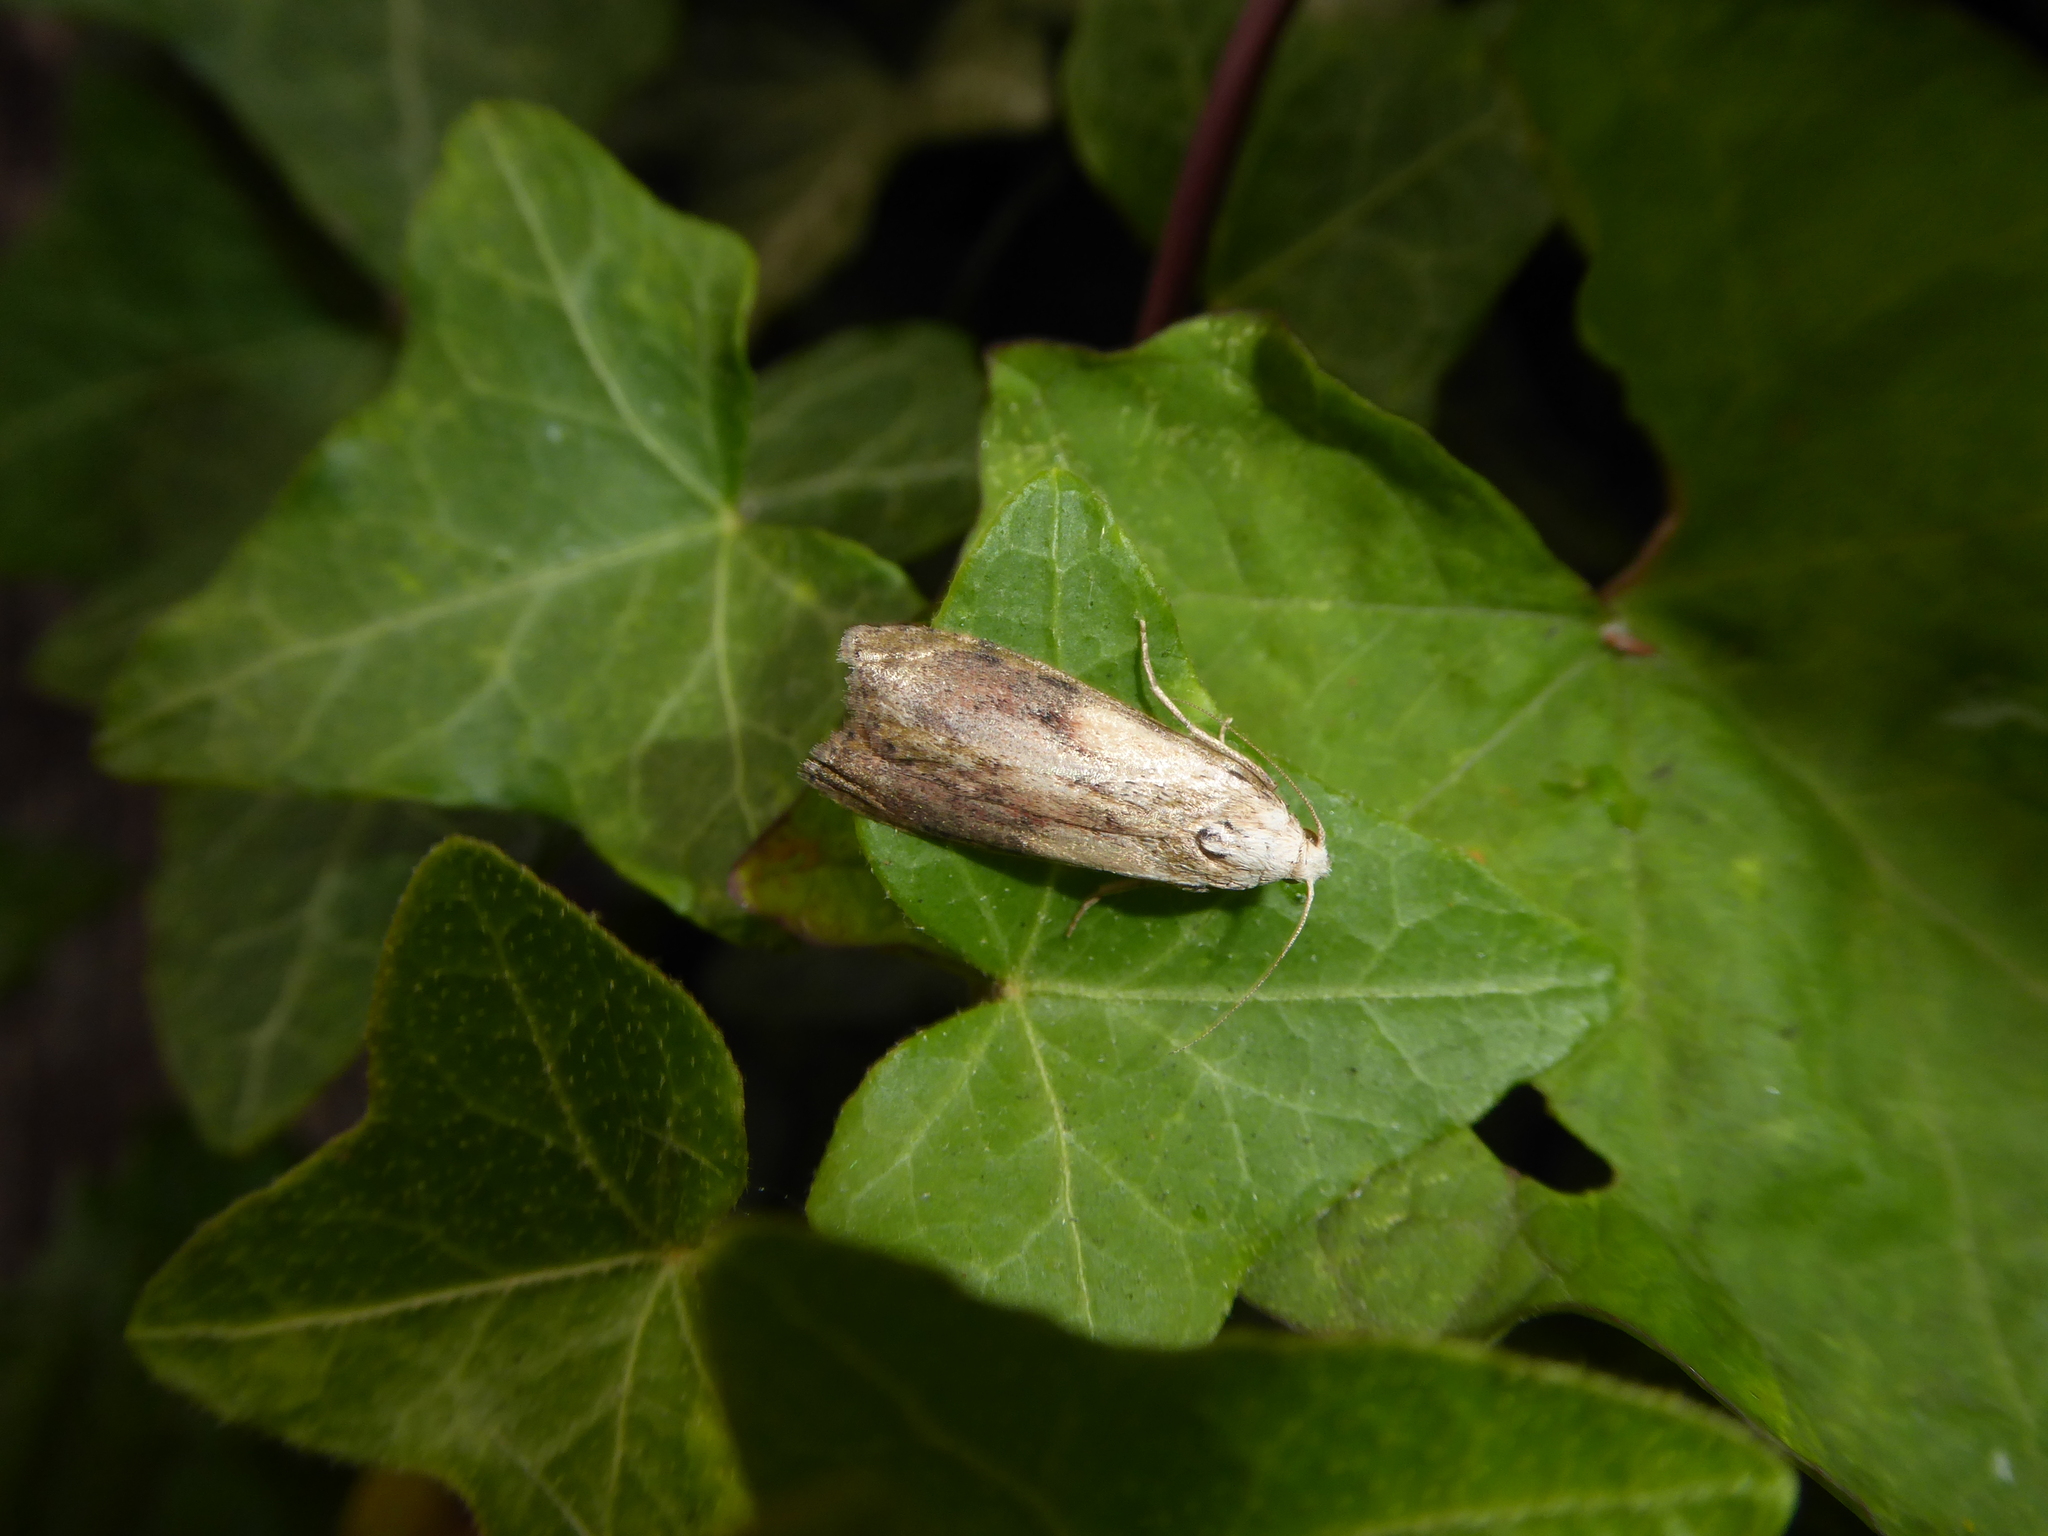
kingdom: Animalia
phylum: Arthropoda
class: Insecta
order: Lepidoptera
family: Pyralidae
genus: Aphomia
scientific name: Aphomia sociella
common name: Bee moth
